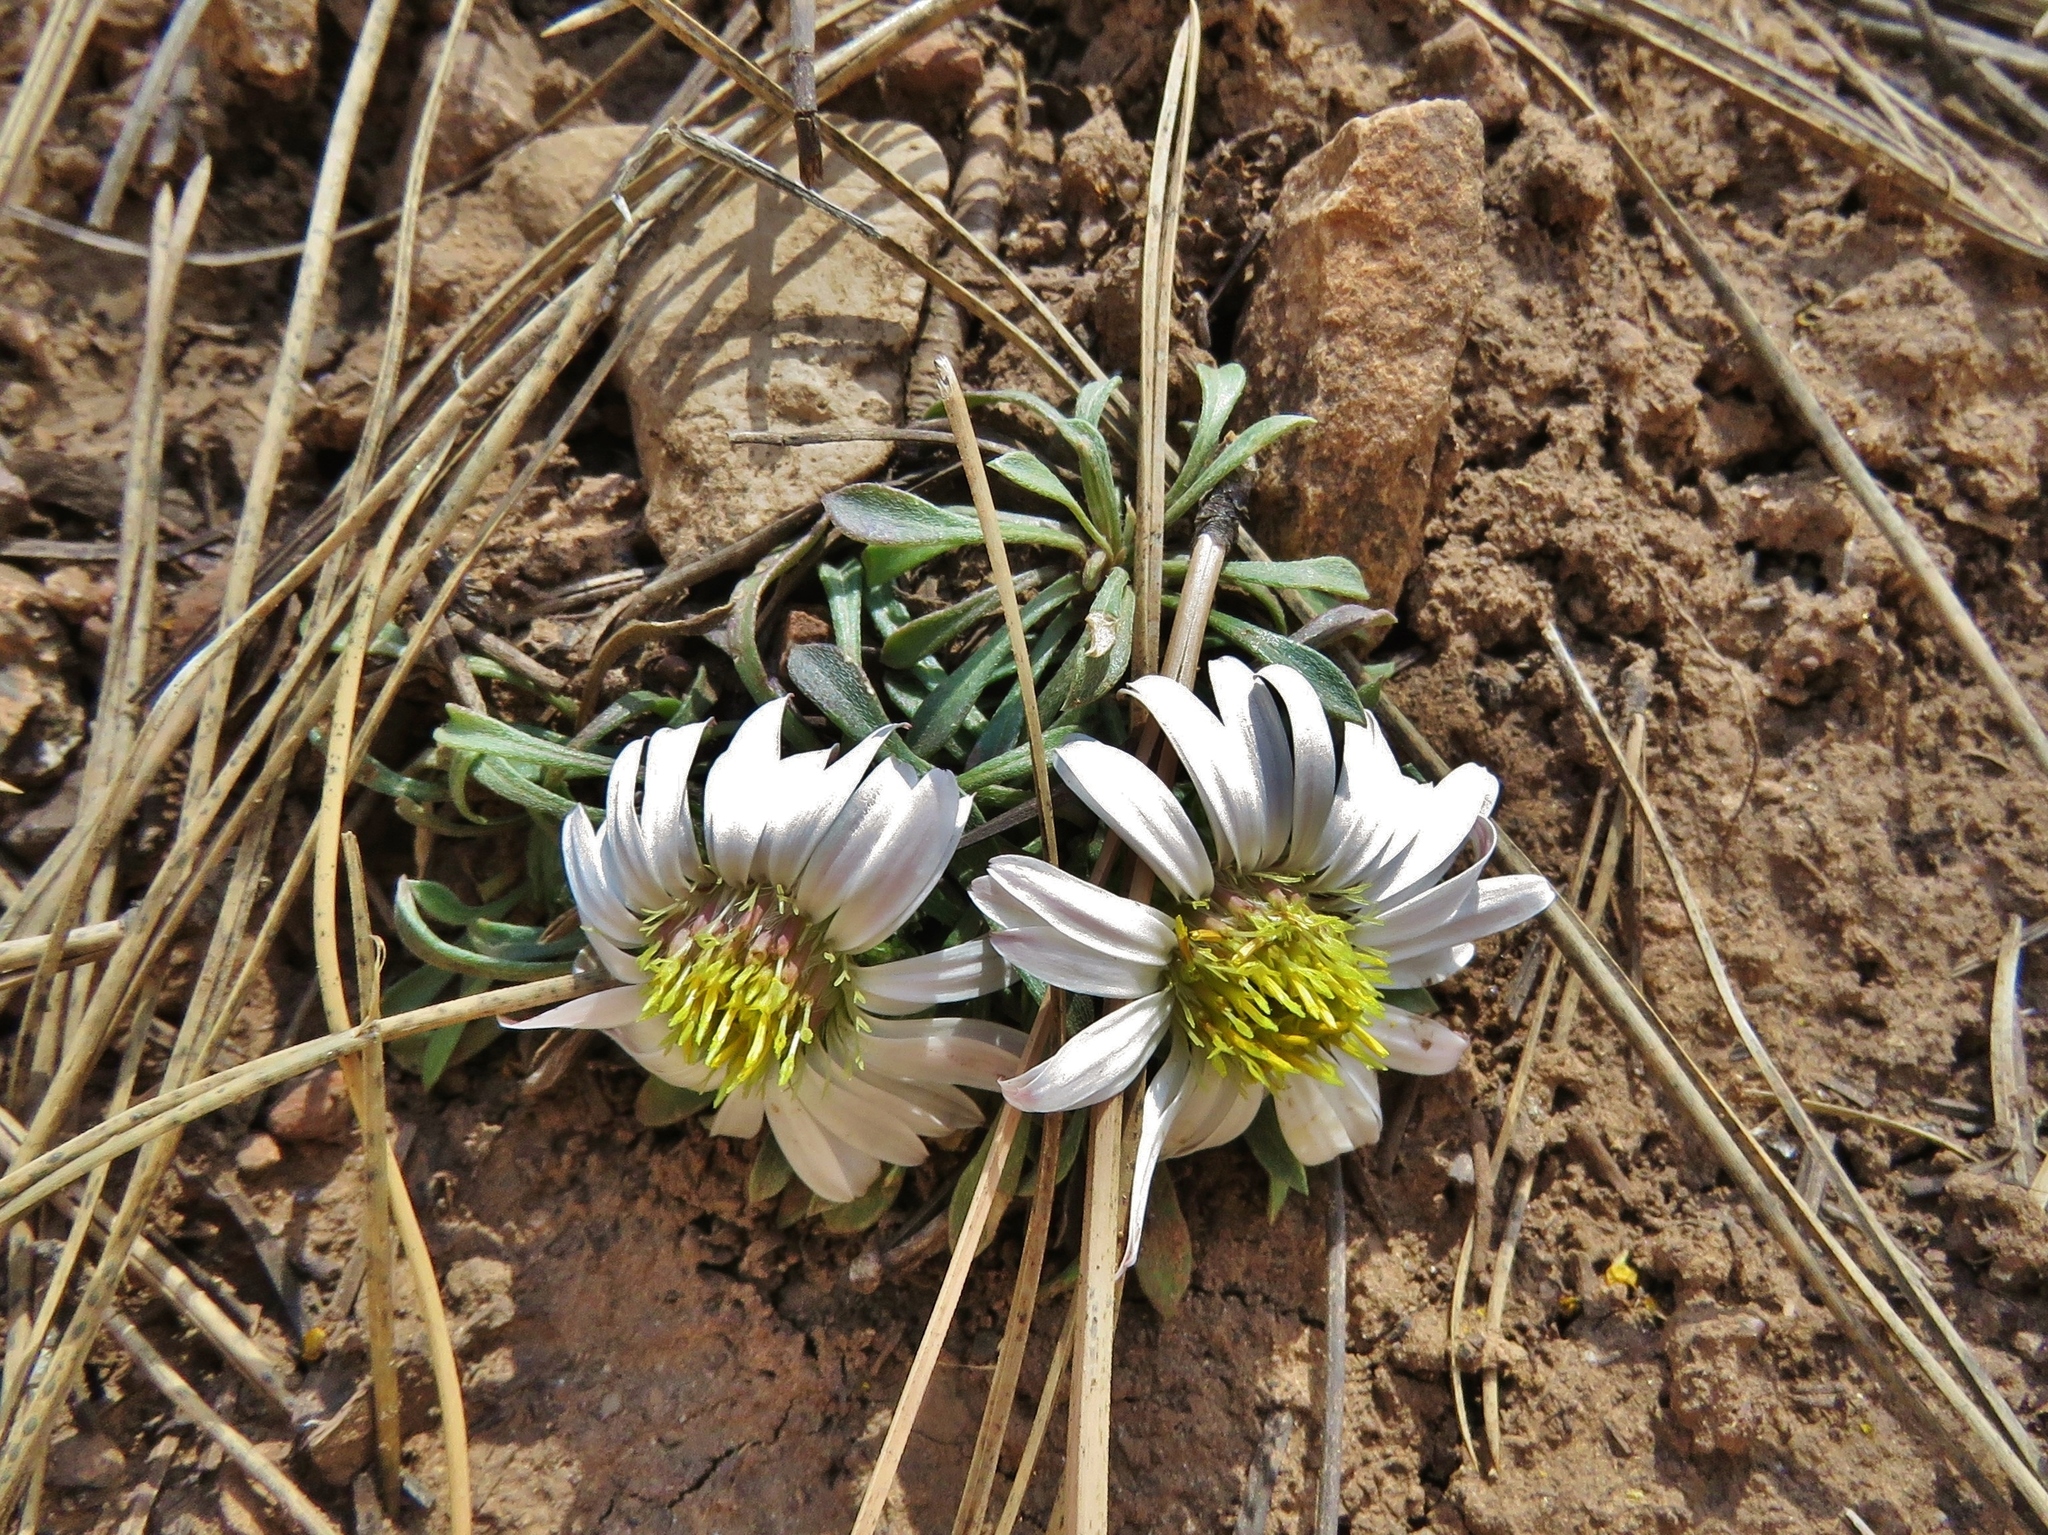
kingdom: Plantae
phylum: Tracheophyta
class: Magnoliopsida
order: Asterales
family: Asteraceae
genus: Townsendia
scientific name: Townsendia exscapa
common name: Dwarf townsendia
